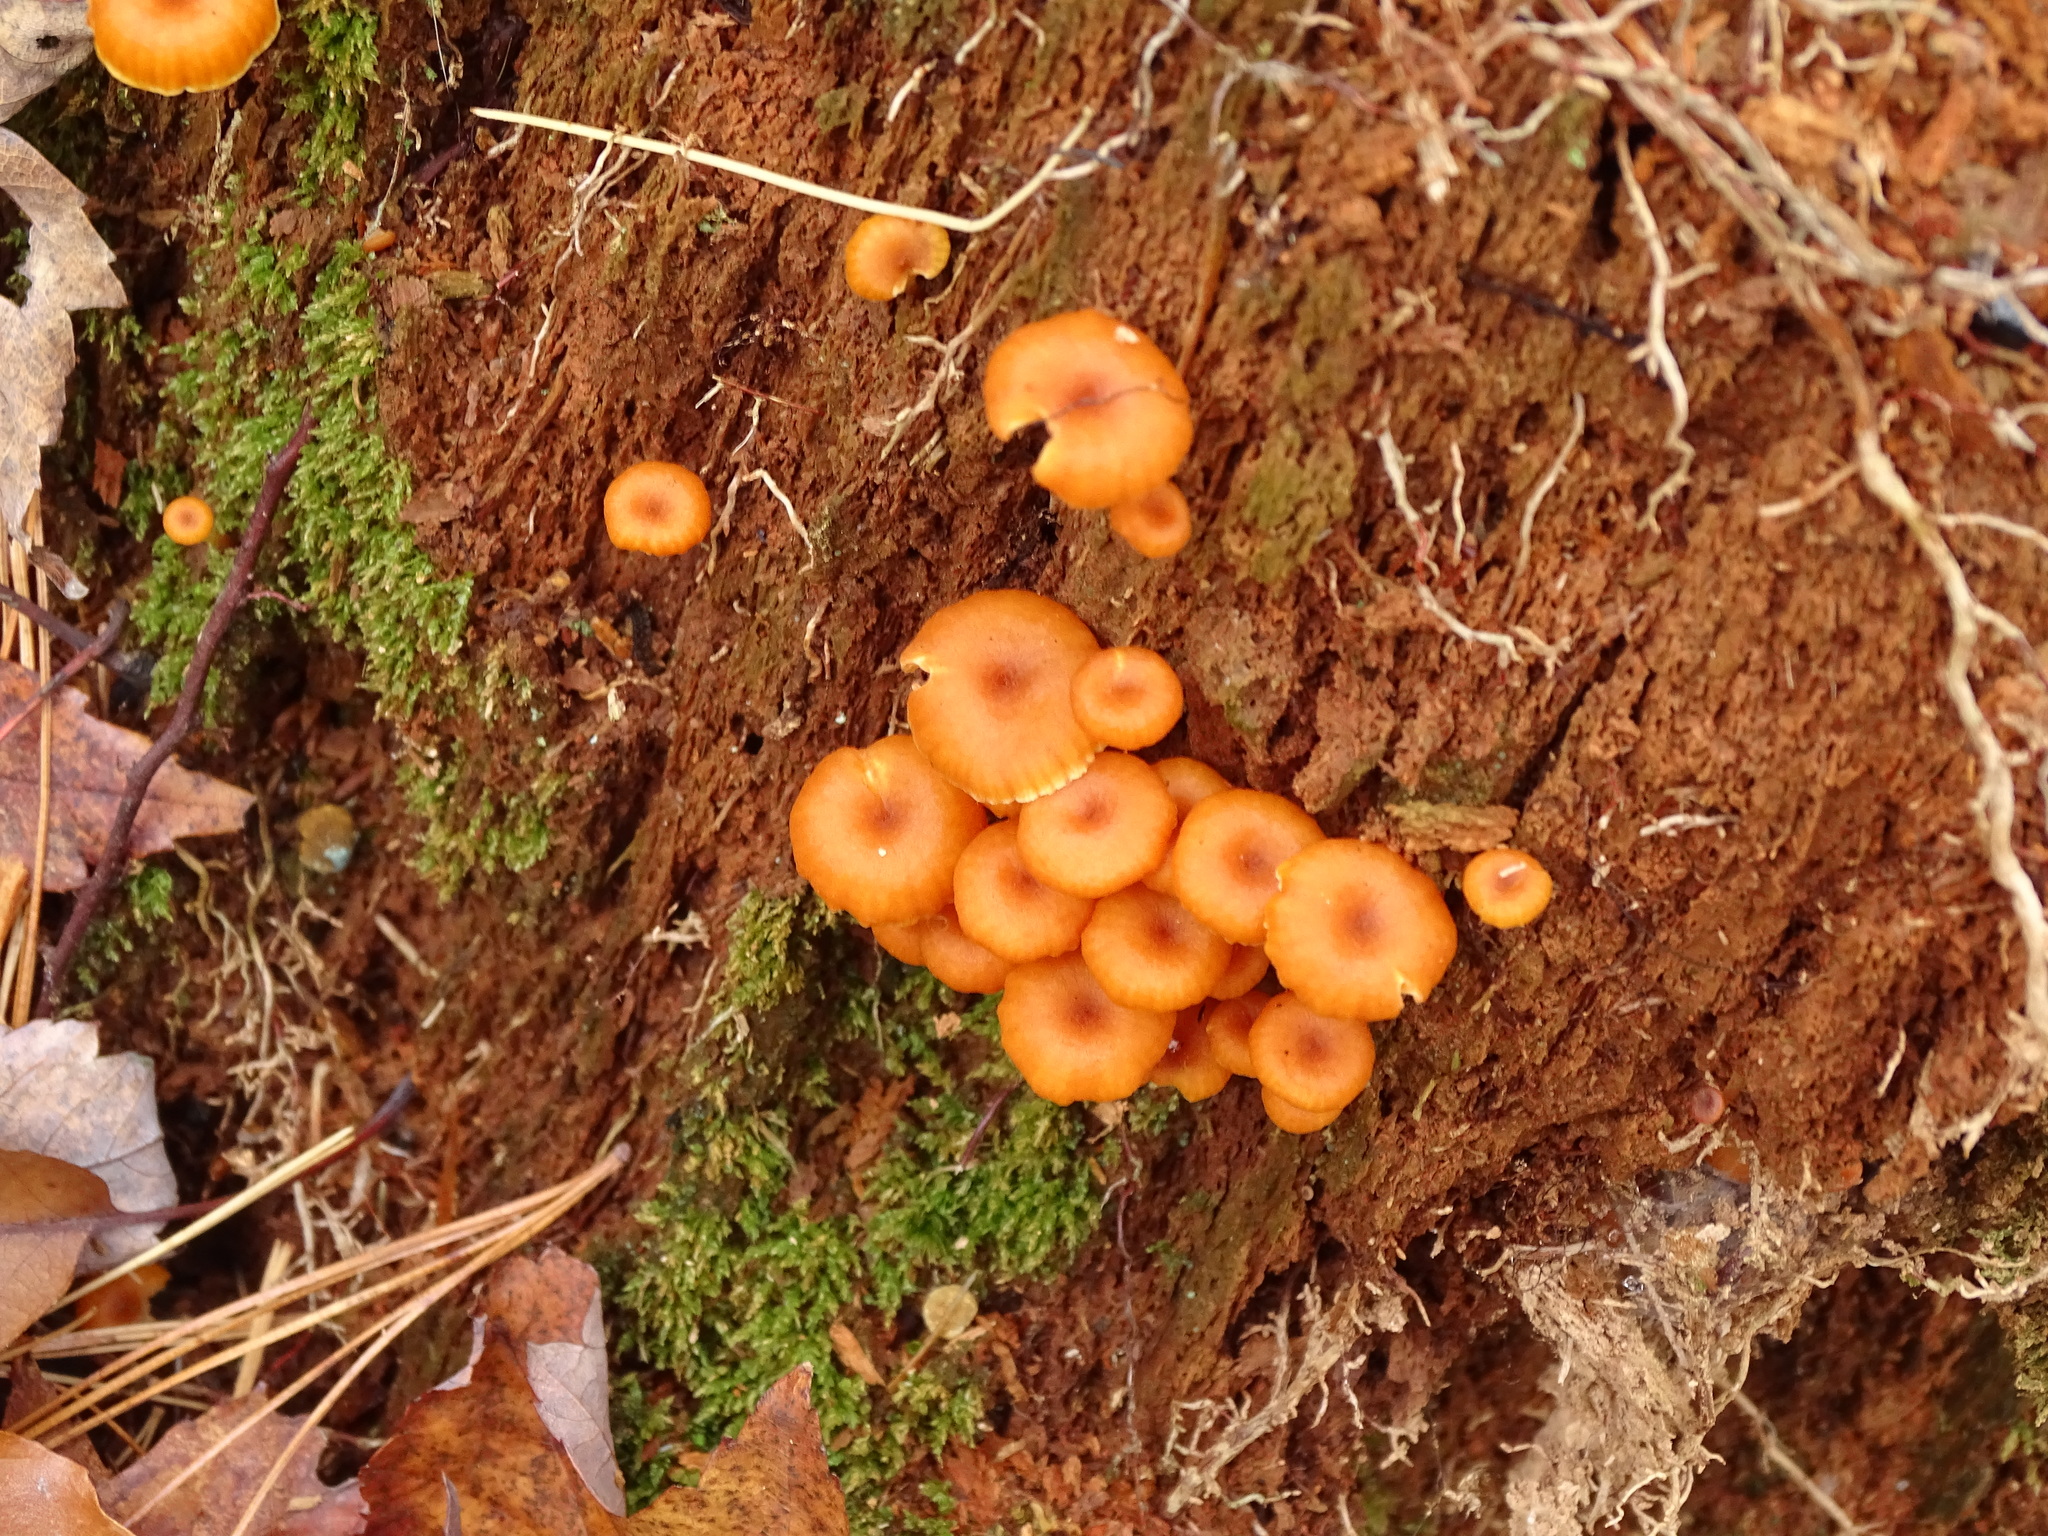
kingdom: Fungi
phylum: Basidiomycota
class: Agaricomycetes
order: Agaricales
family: Mycenaceae
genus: Xeromphalina
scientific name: Xeromphalina campanella
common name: Pinewood gingertail
